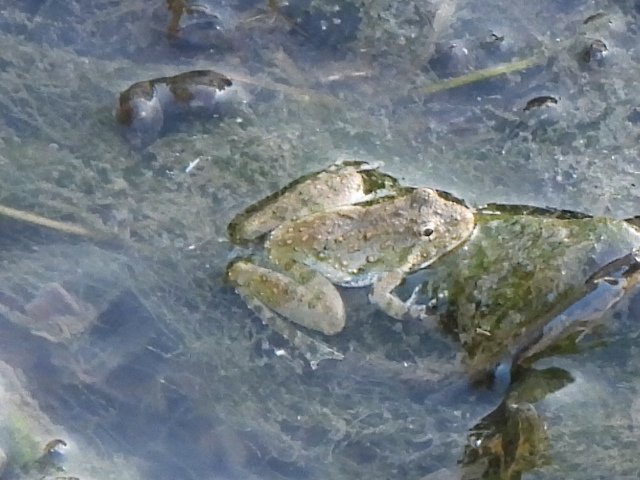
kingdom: Animalia
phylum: Chordata
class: Amphibia
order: Anura
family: Hylidae
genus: Acris
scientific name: Acris blanchardi
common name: Blanchard's cricket frog
